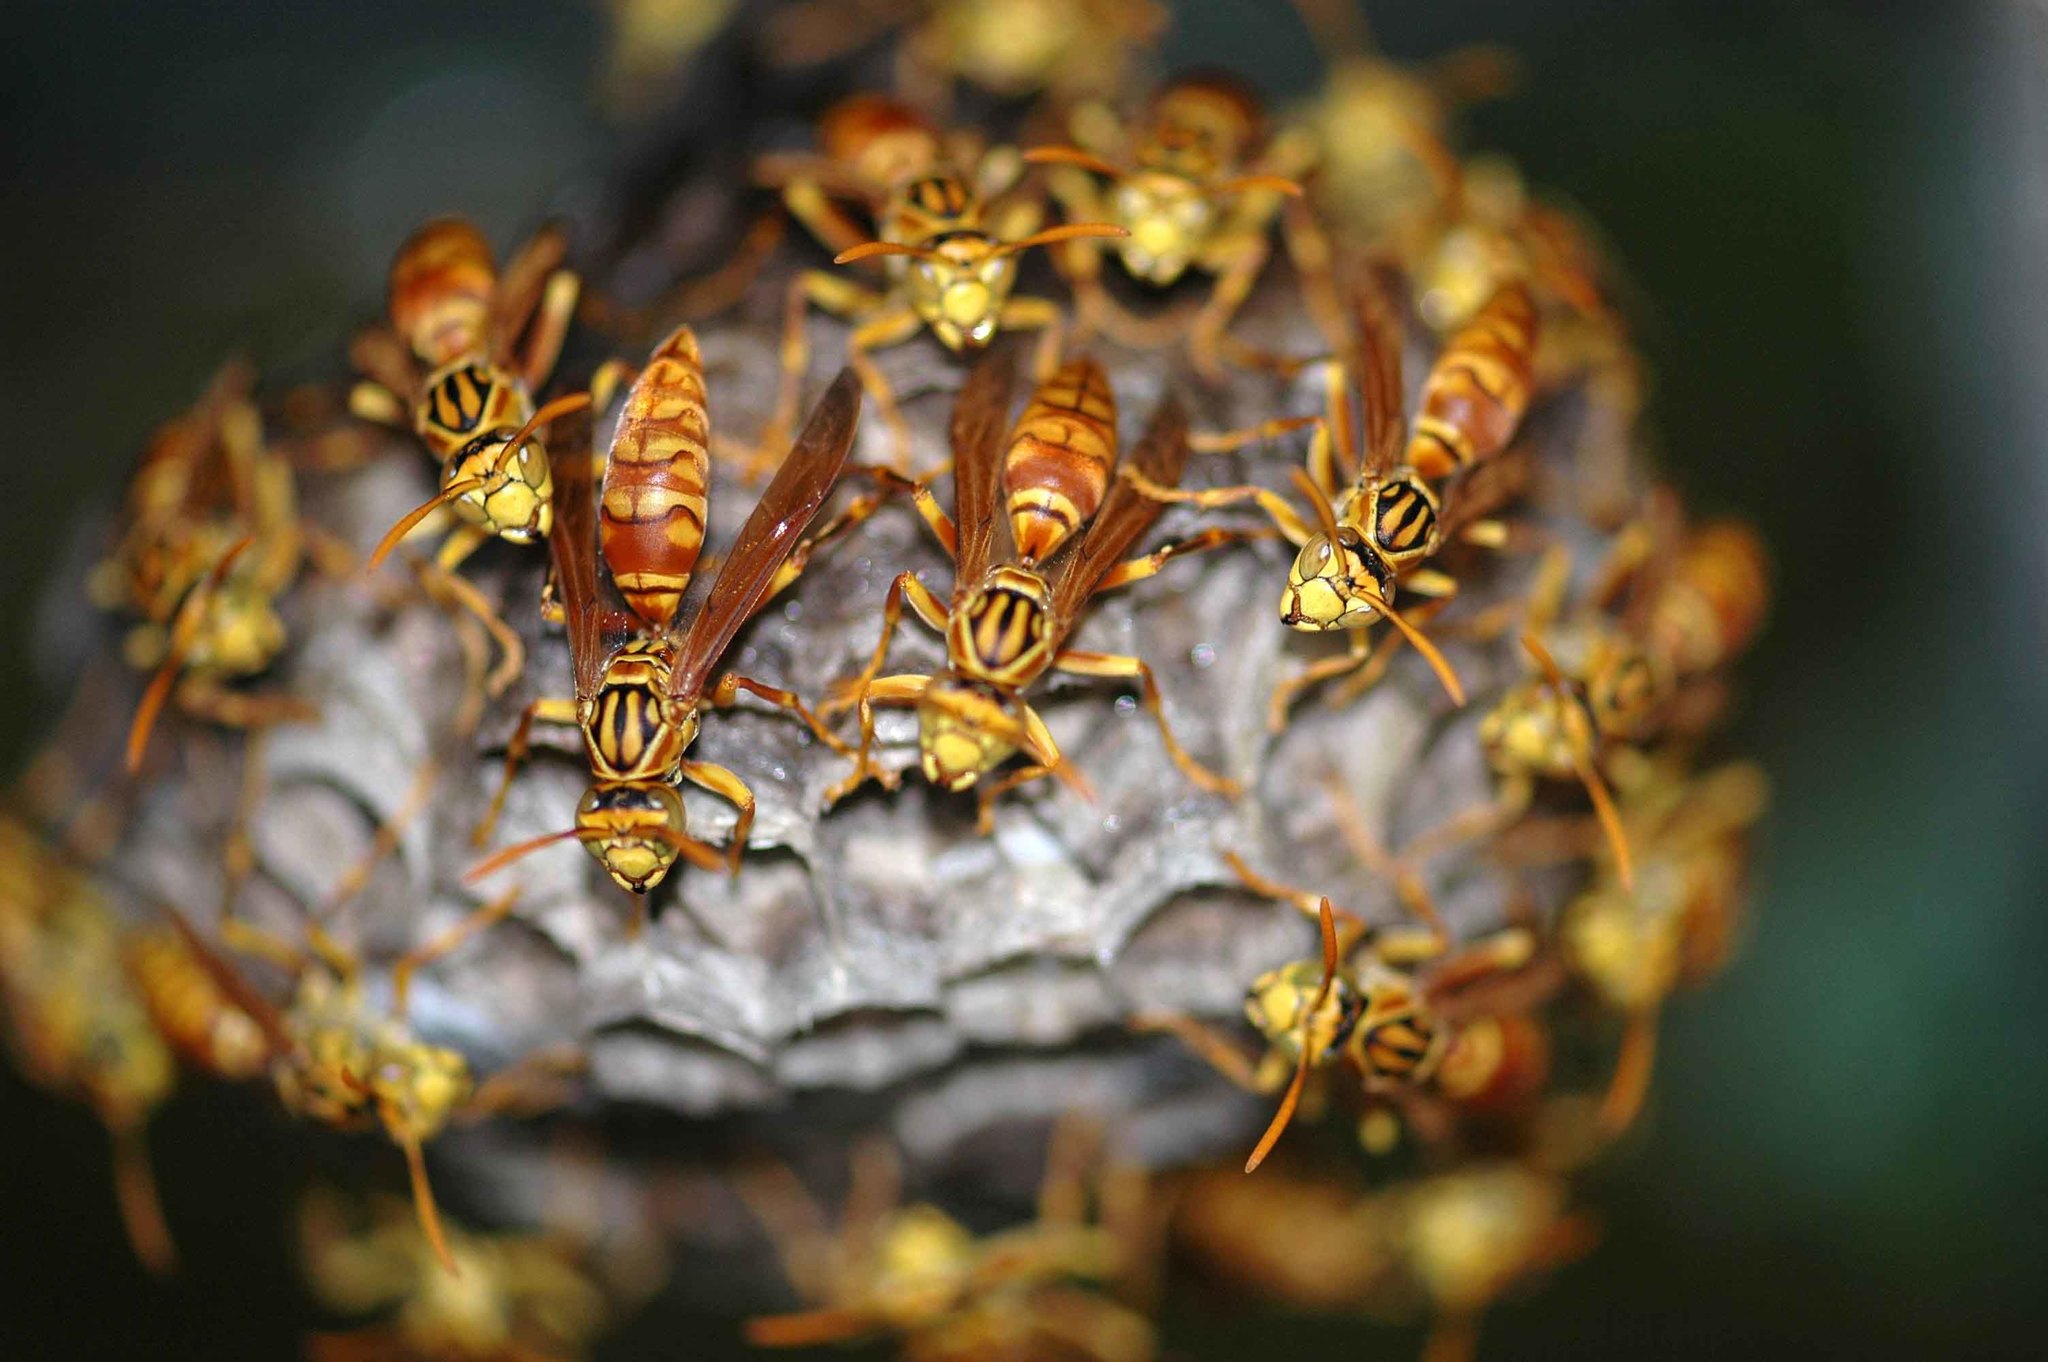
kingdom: Animalia
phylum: Arthropoda
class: Insecta
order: Hymenoptera
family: Eumenidae
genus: Polistes
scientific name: Polistes olivaceus
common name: Paper wasp
